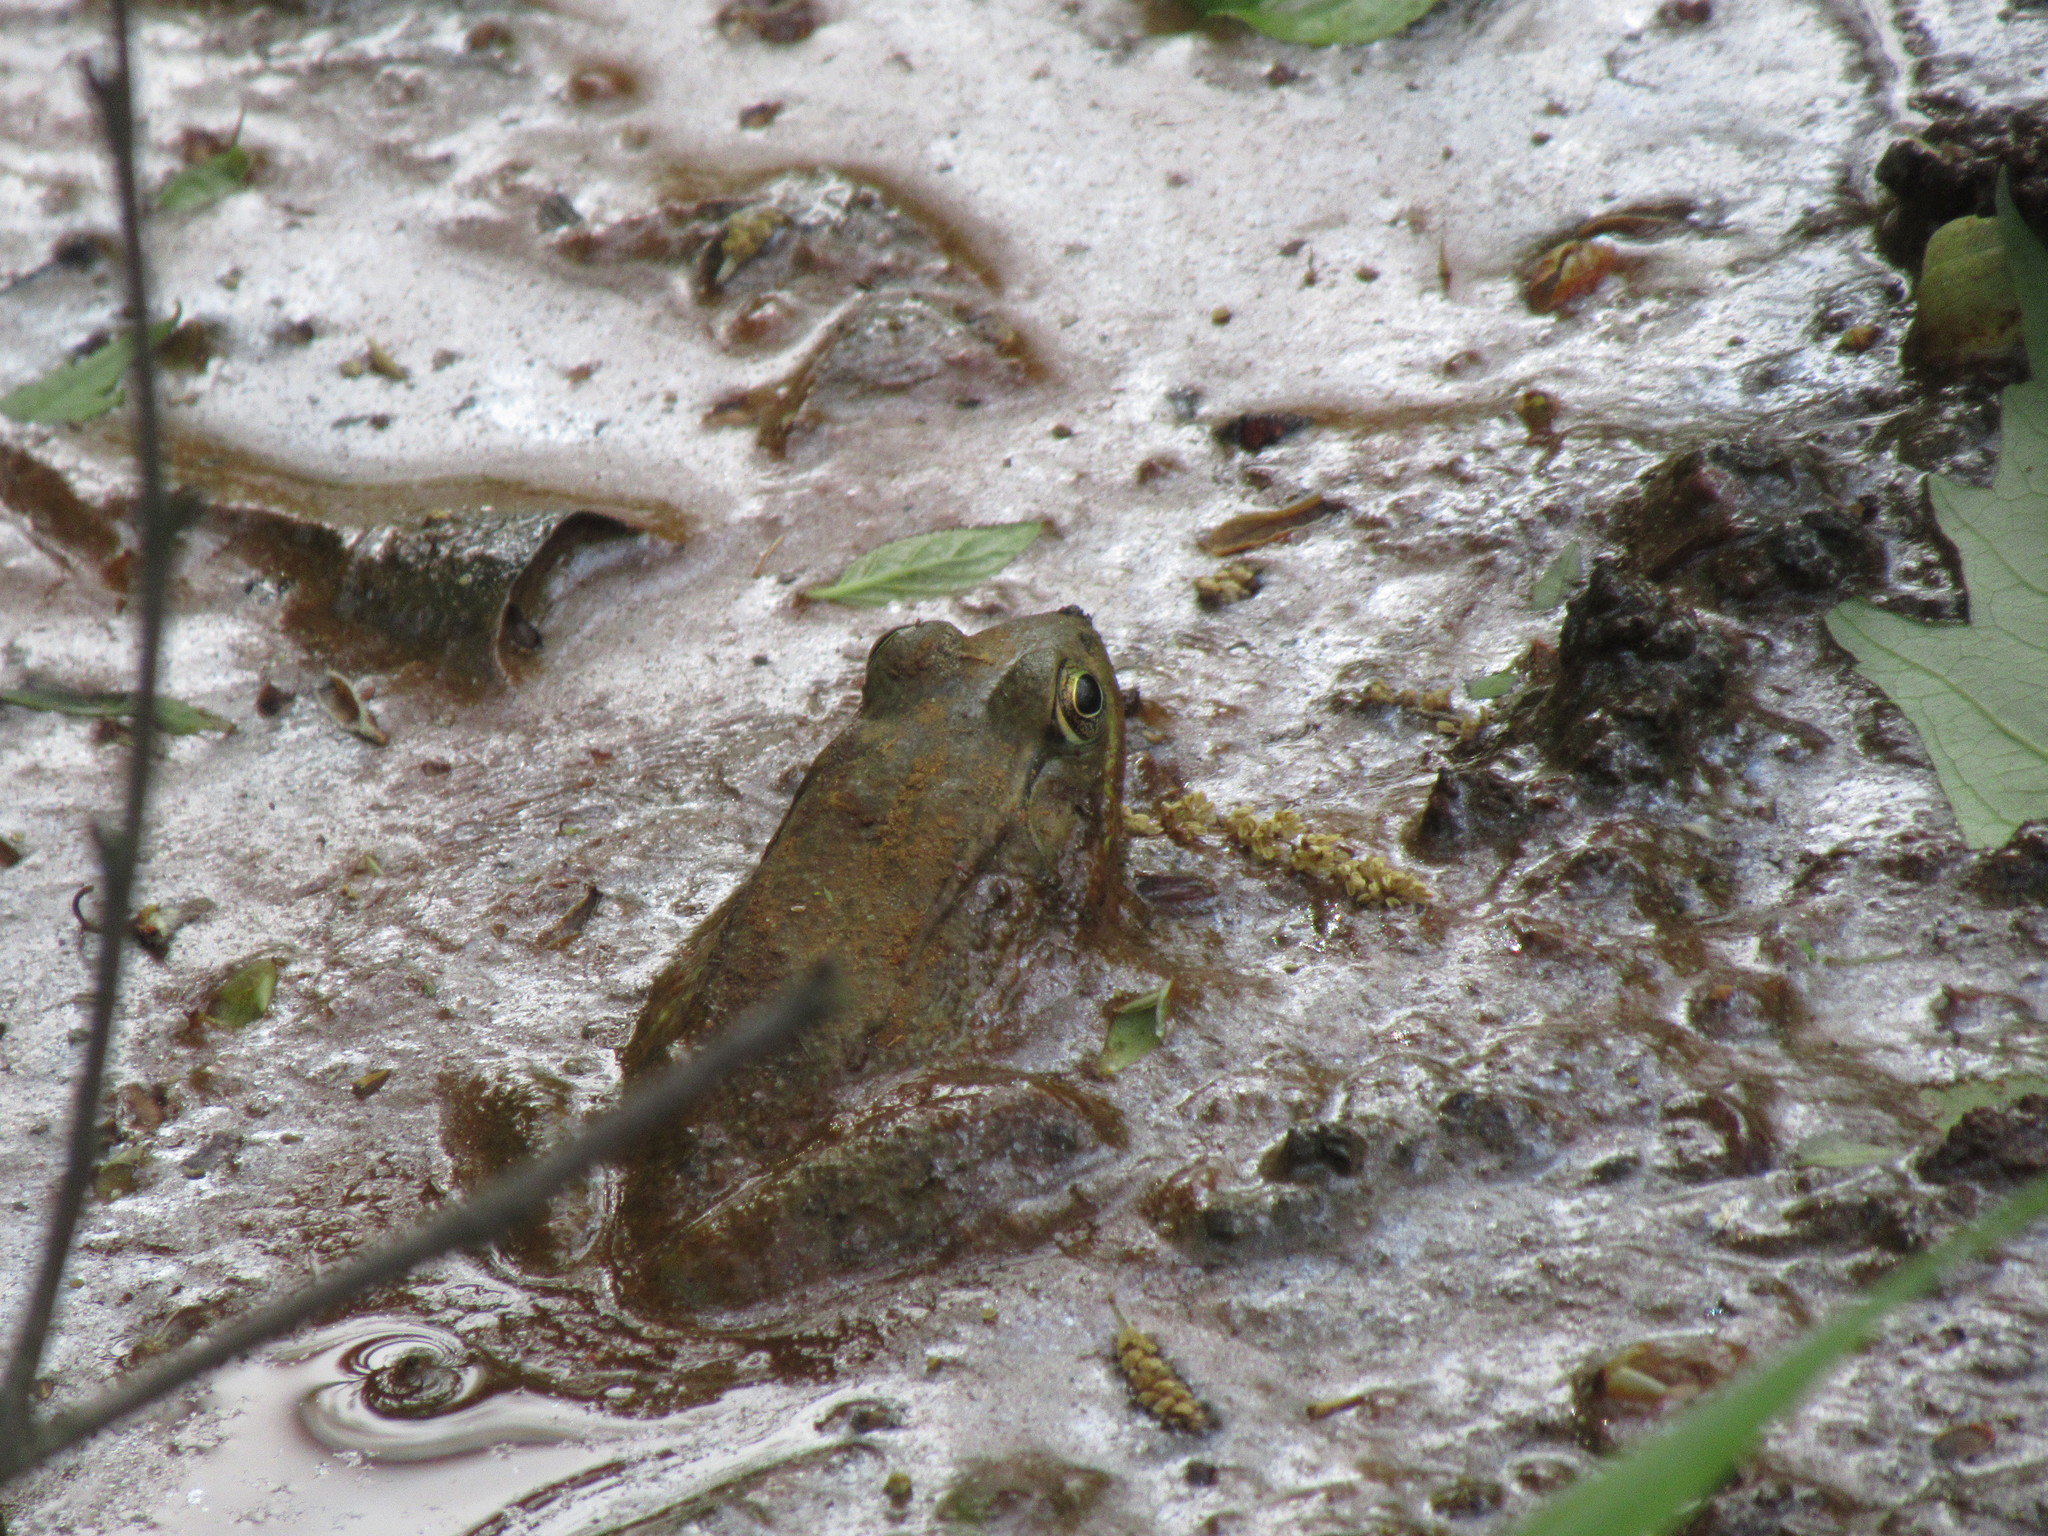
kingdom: Animalia
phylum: Chordata
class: Amphibia
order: Anura
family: Ranidae
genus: Lithobates
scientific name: Lithobates clamitans
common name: Green frog
